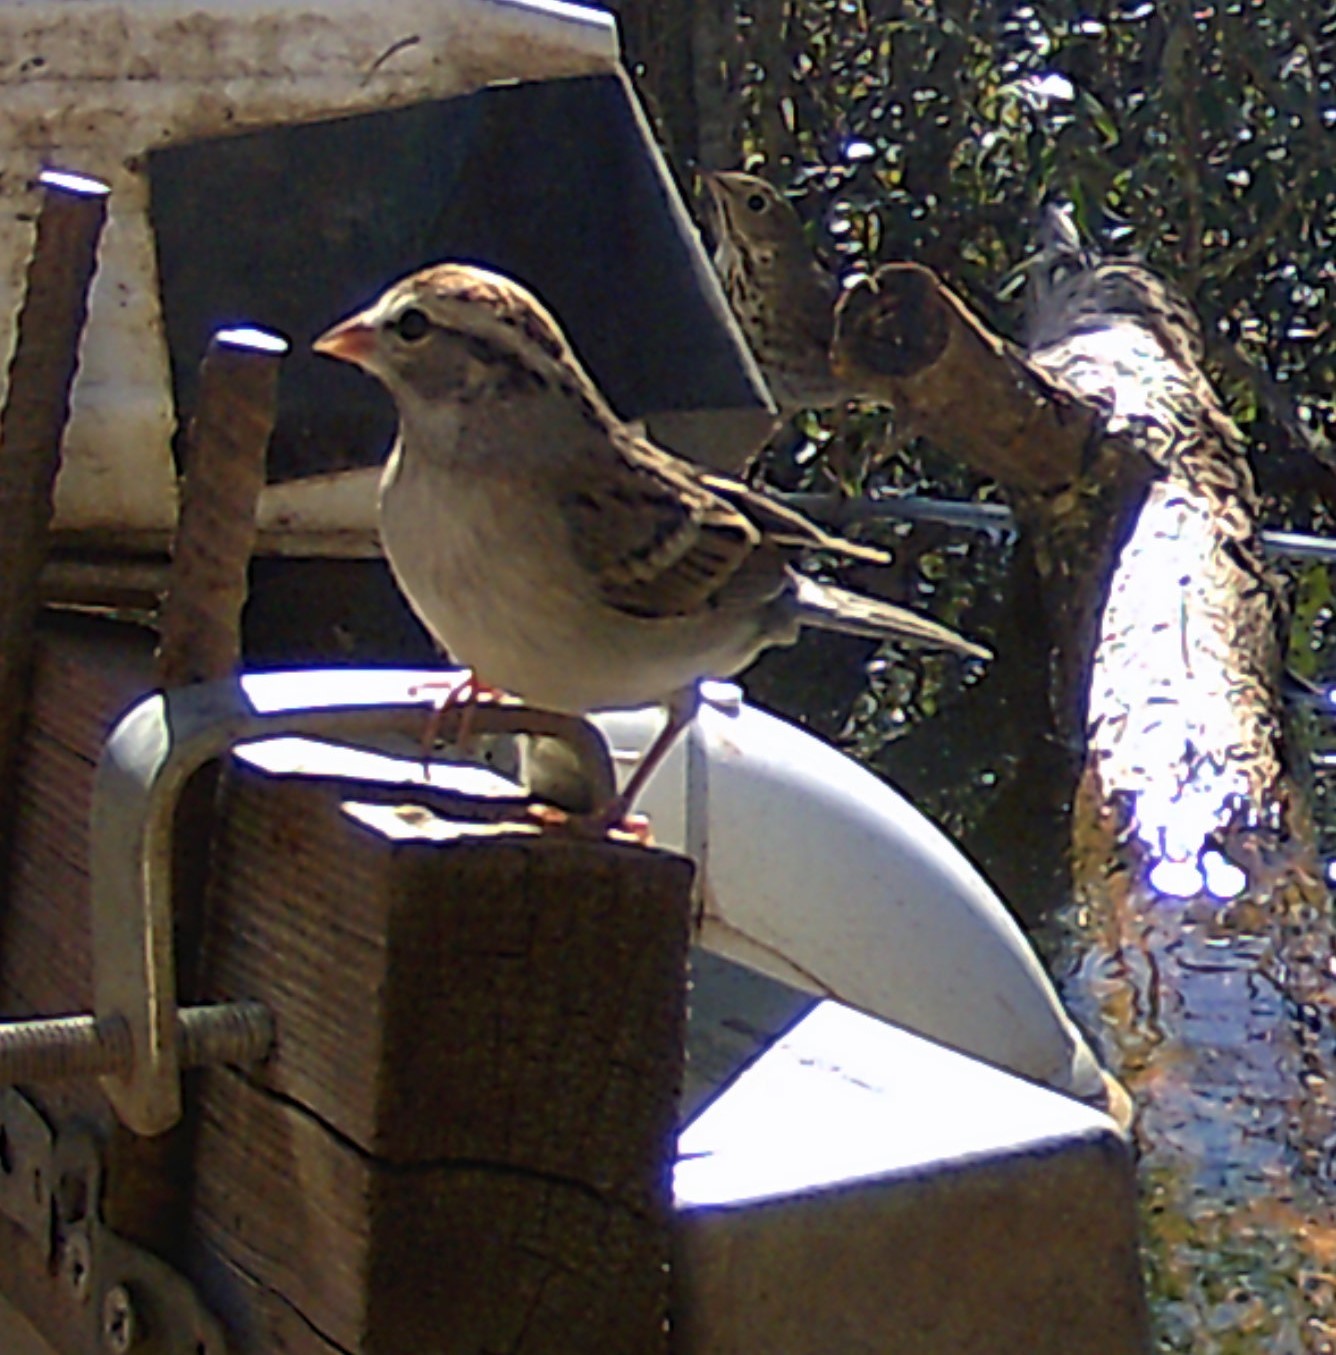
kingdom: Animalia
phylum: Chordata
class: Aves
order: Passeriformes
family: Passerellidae
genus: Spizella
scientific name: Spizella passerina
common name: Chipping sparrow
